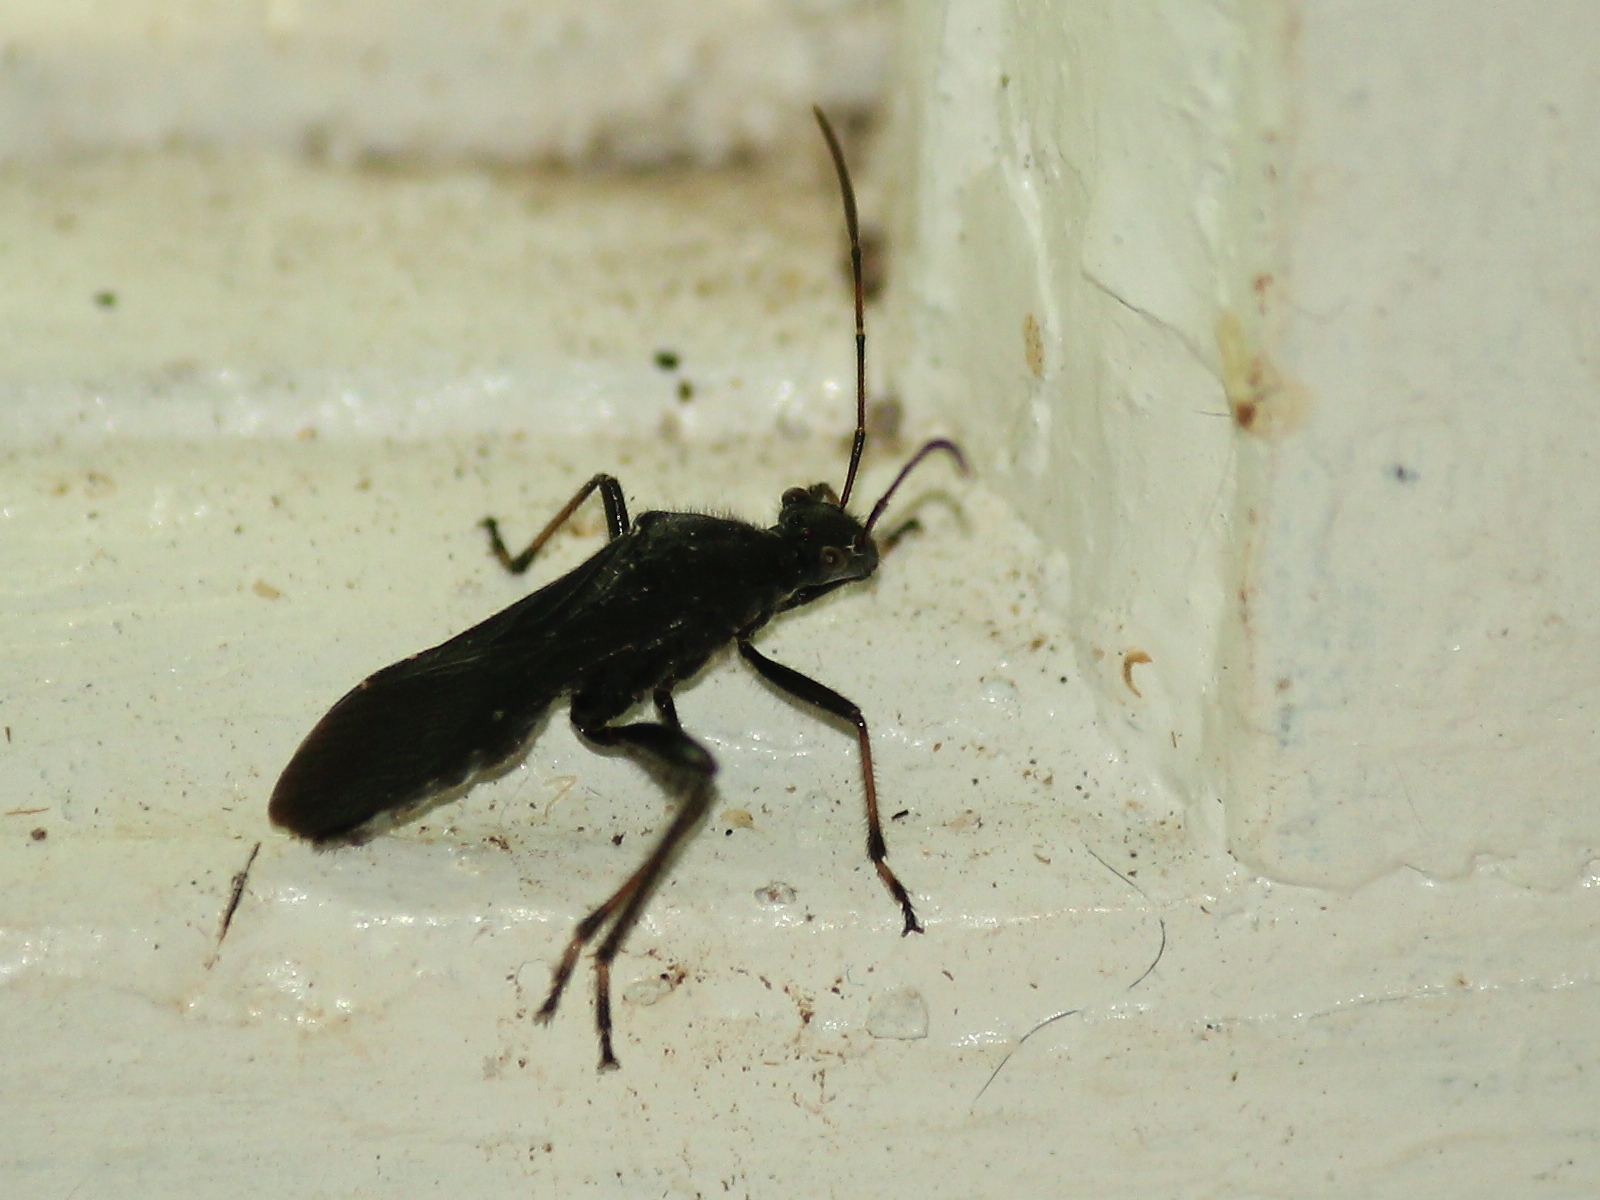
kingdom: Animalia
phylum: Arthropoda
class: Insecta
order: Hemiptera
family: Alydidae
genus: Alydus
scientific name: Alydus eurinus
